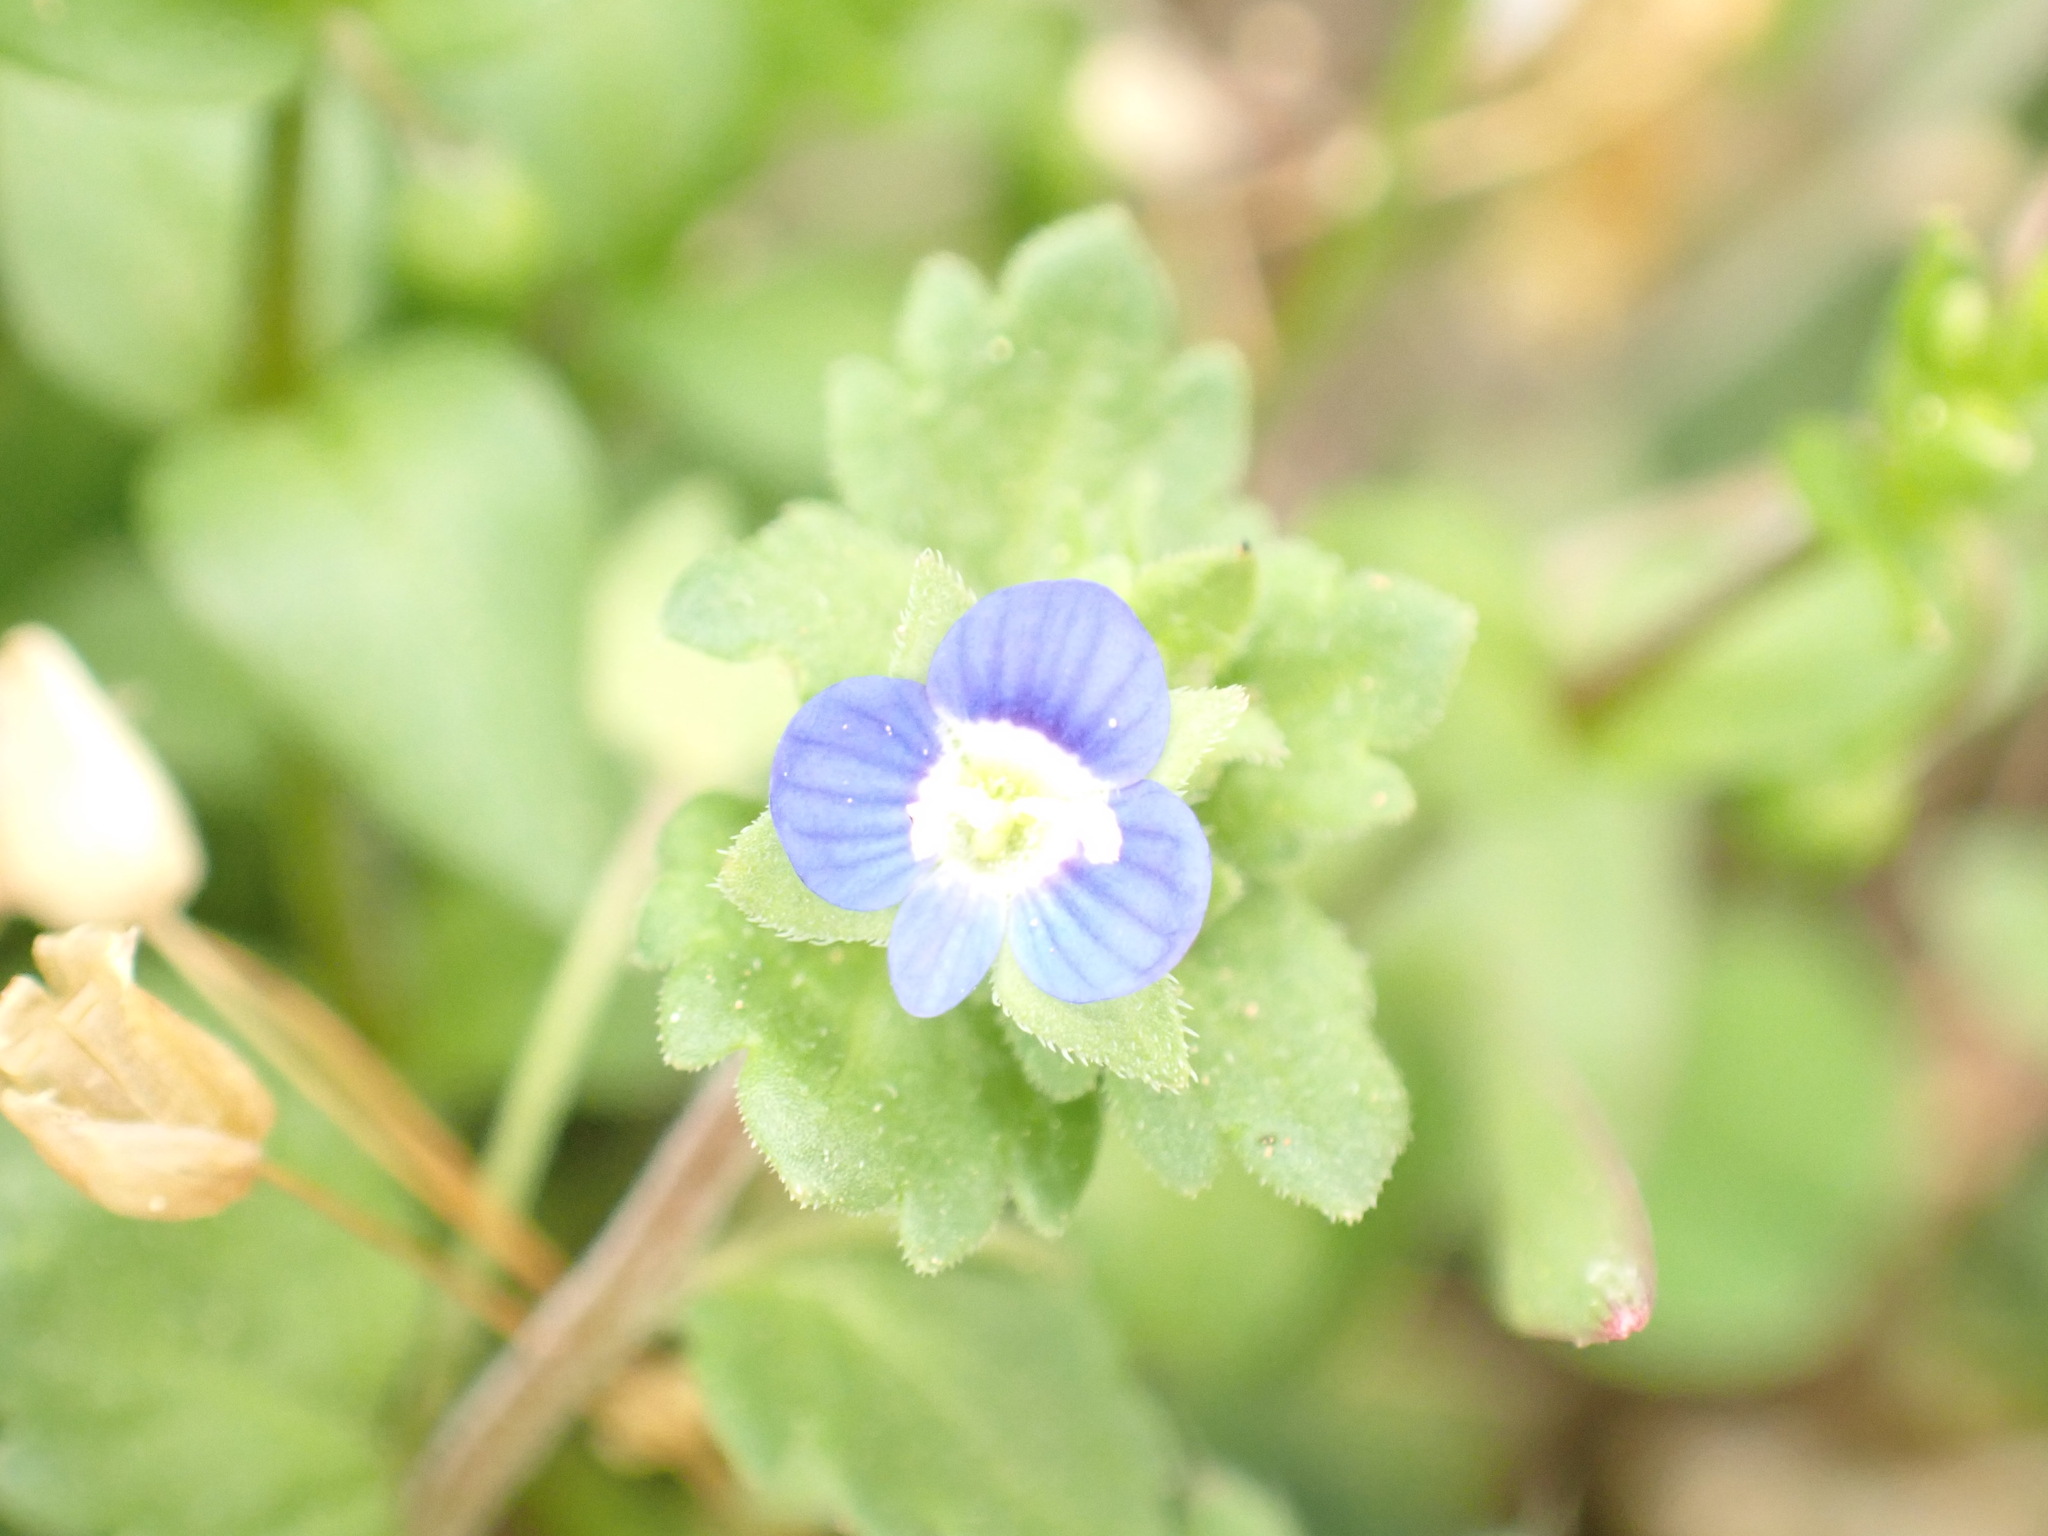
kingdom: Plantae
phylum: Tracheophyta
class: Magnoliopsida
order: Lamiales
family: Plantaginaceae
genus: Veronica
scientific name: Veronica polita
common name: Grey field-speedwell
